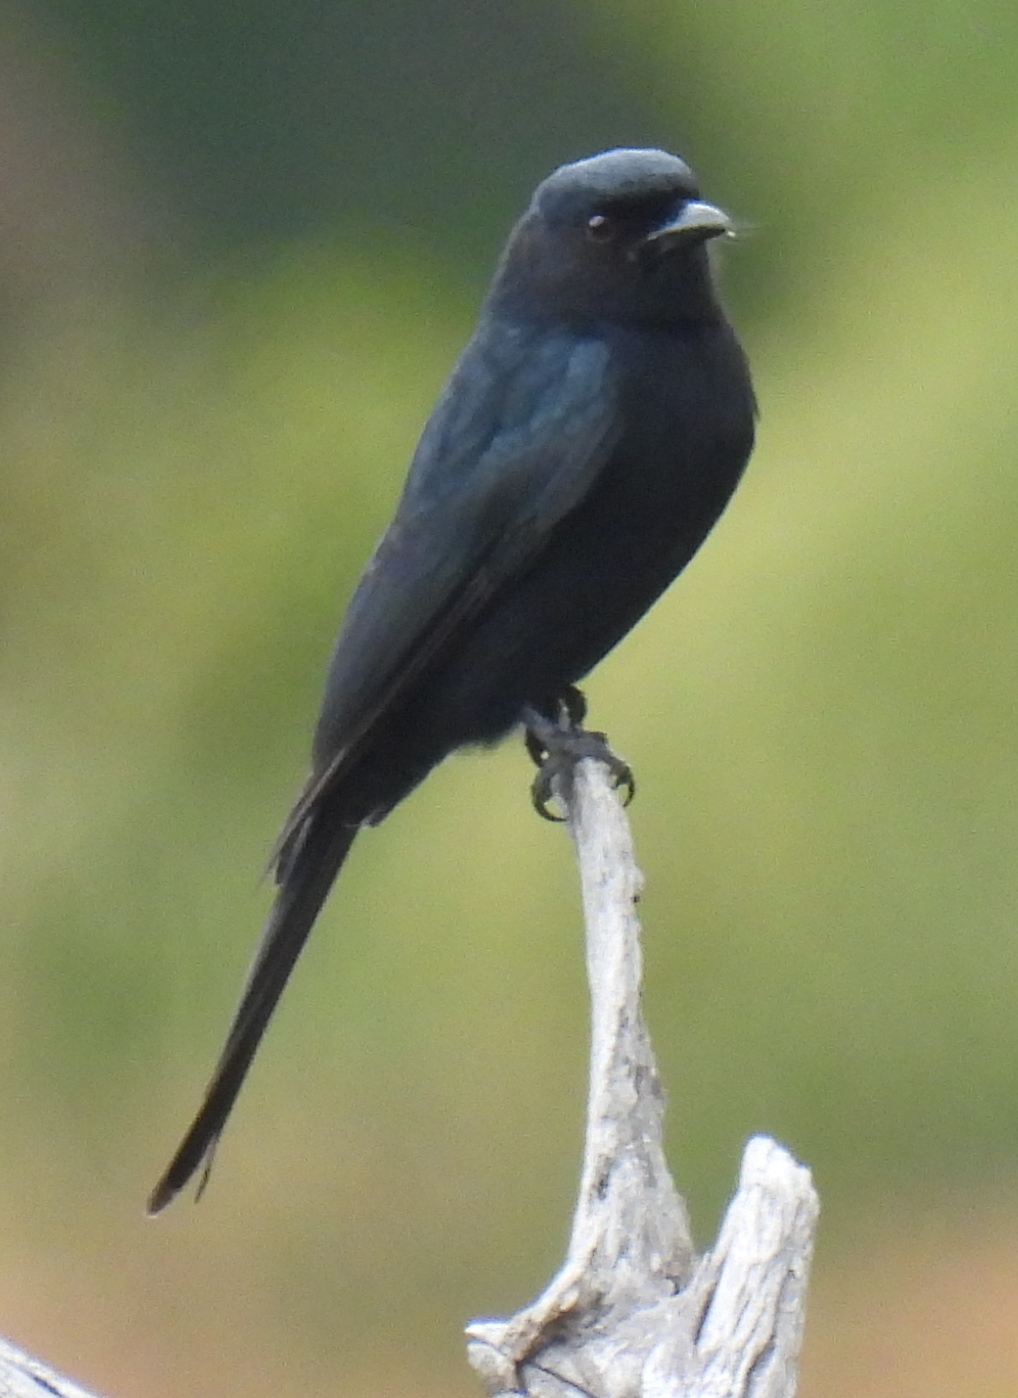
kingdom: Animalia
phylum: Chordata
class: Aves
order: Passeriformes
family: Dicruridae
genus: Dicrurus
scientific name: Dicrurus adsimilis
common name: Fork-tailed drongo
